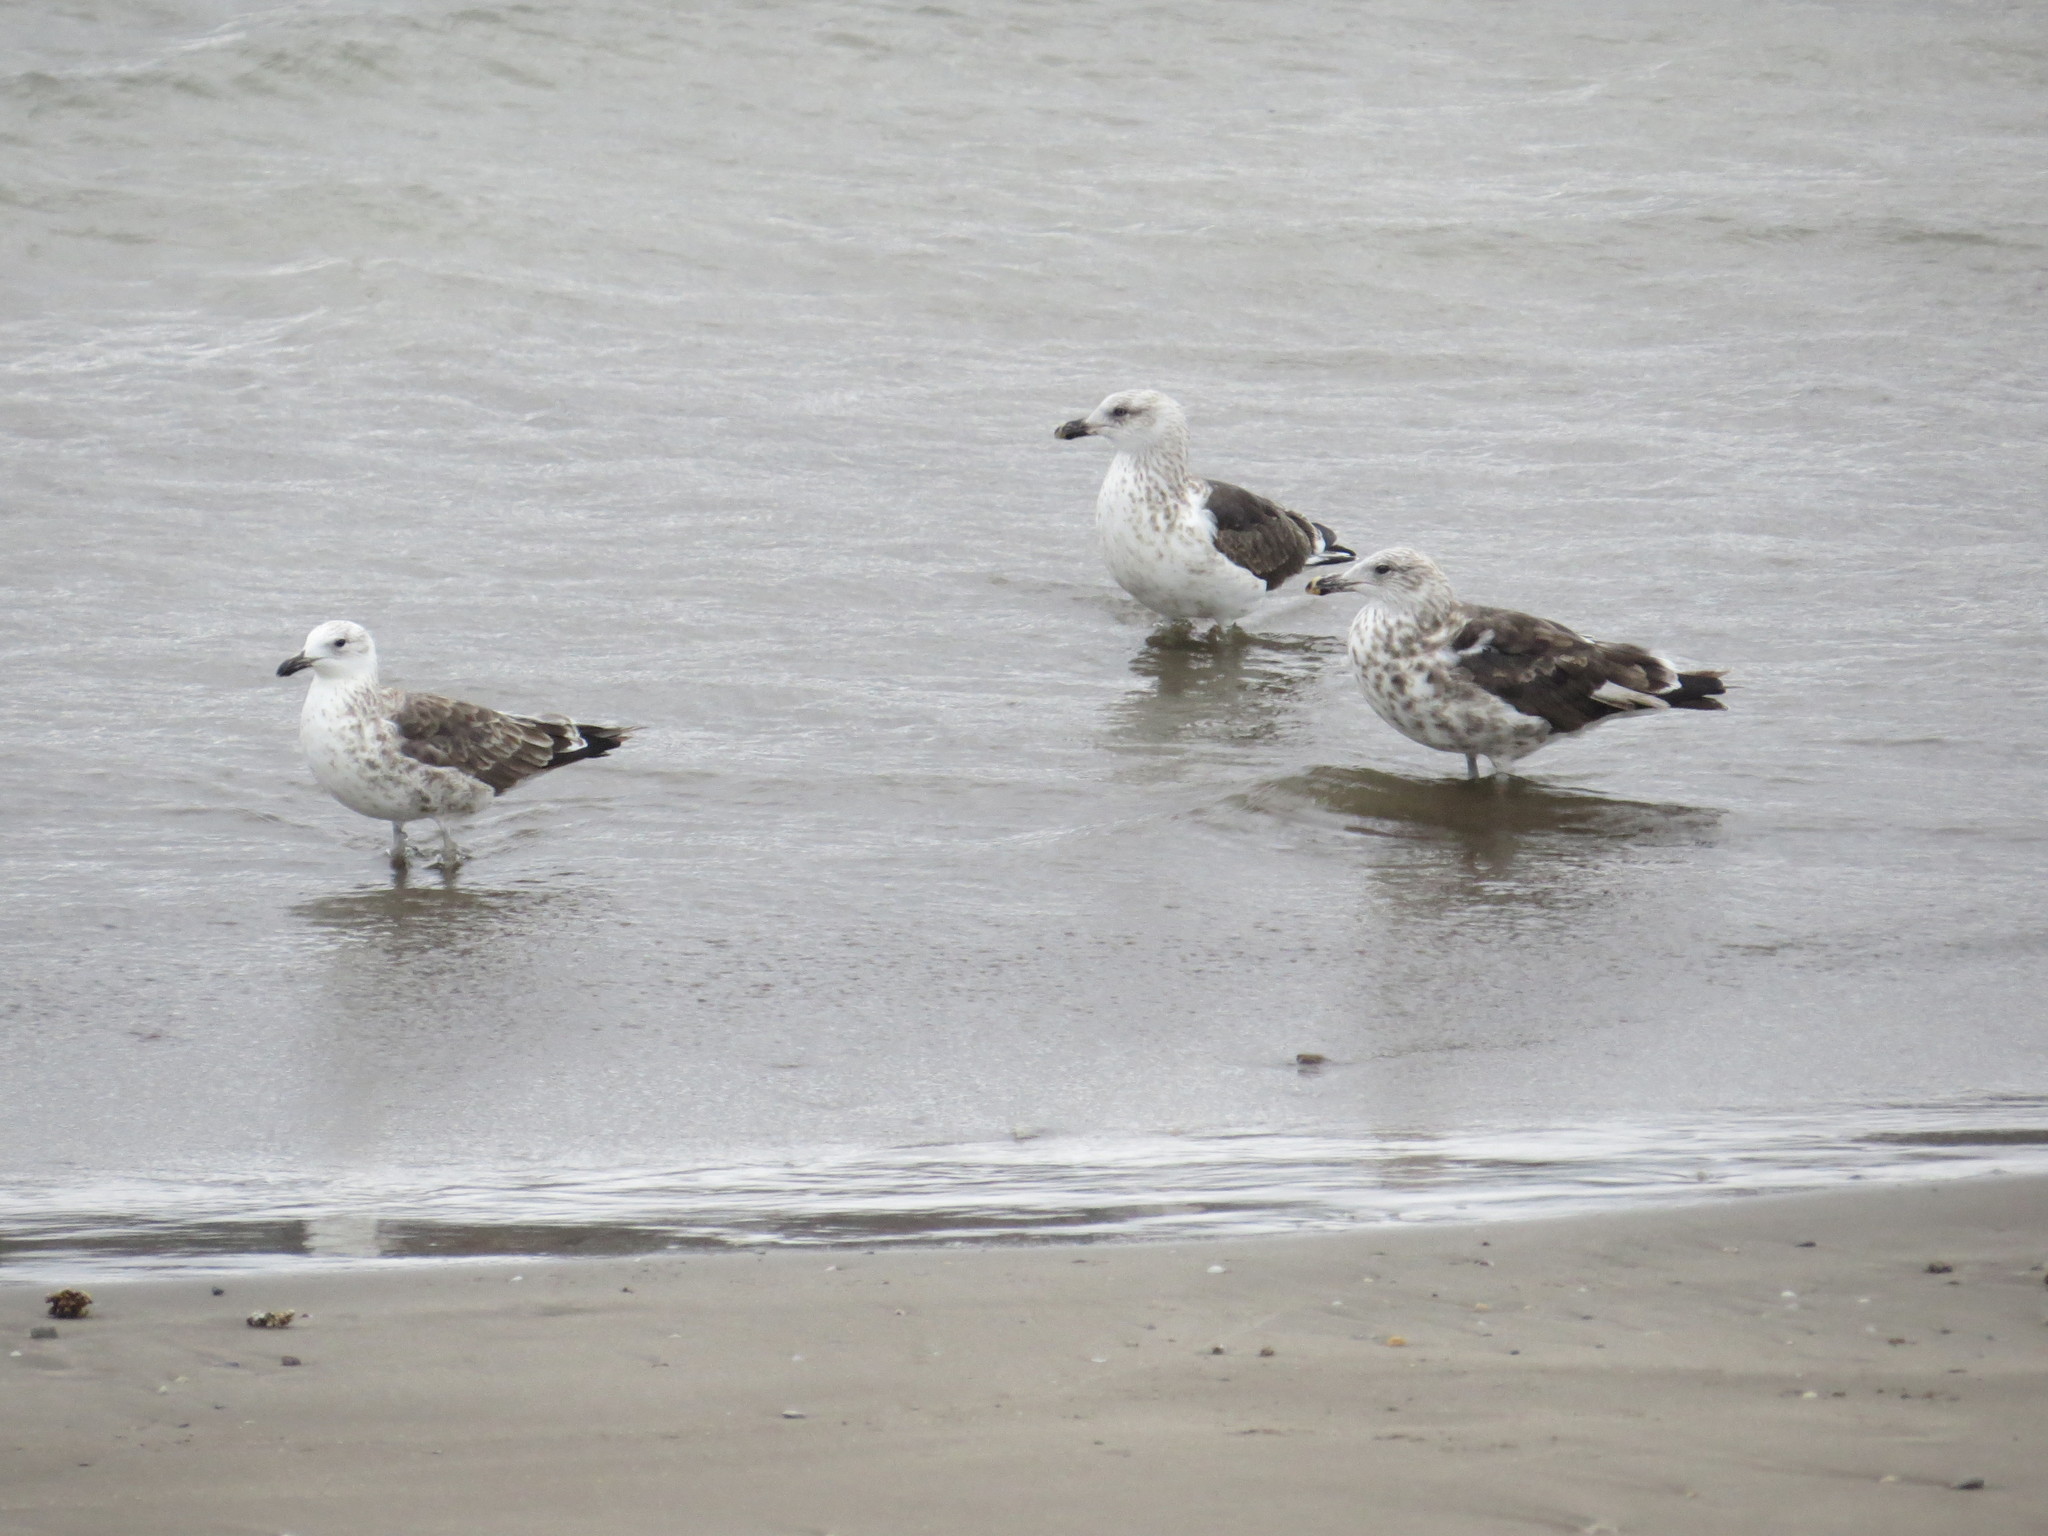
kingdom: Animalia
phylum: Chordata
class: Aves
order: Charadriiformes
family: Laridae
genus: Larus
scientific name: Larus dominicanus
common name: Kelp gull
